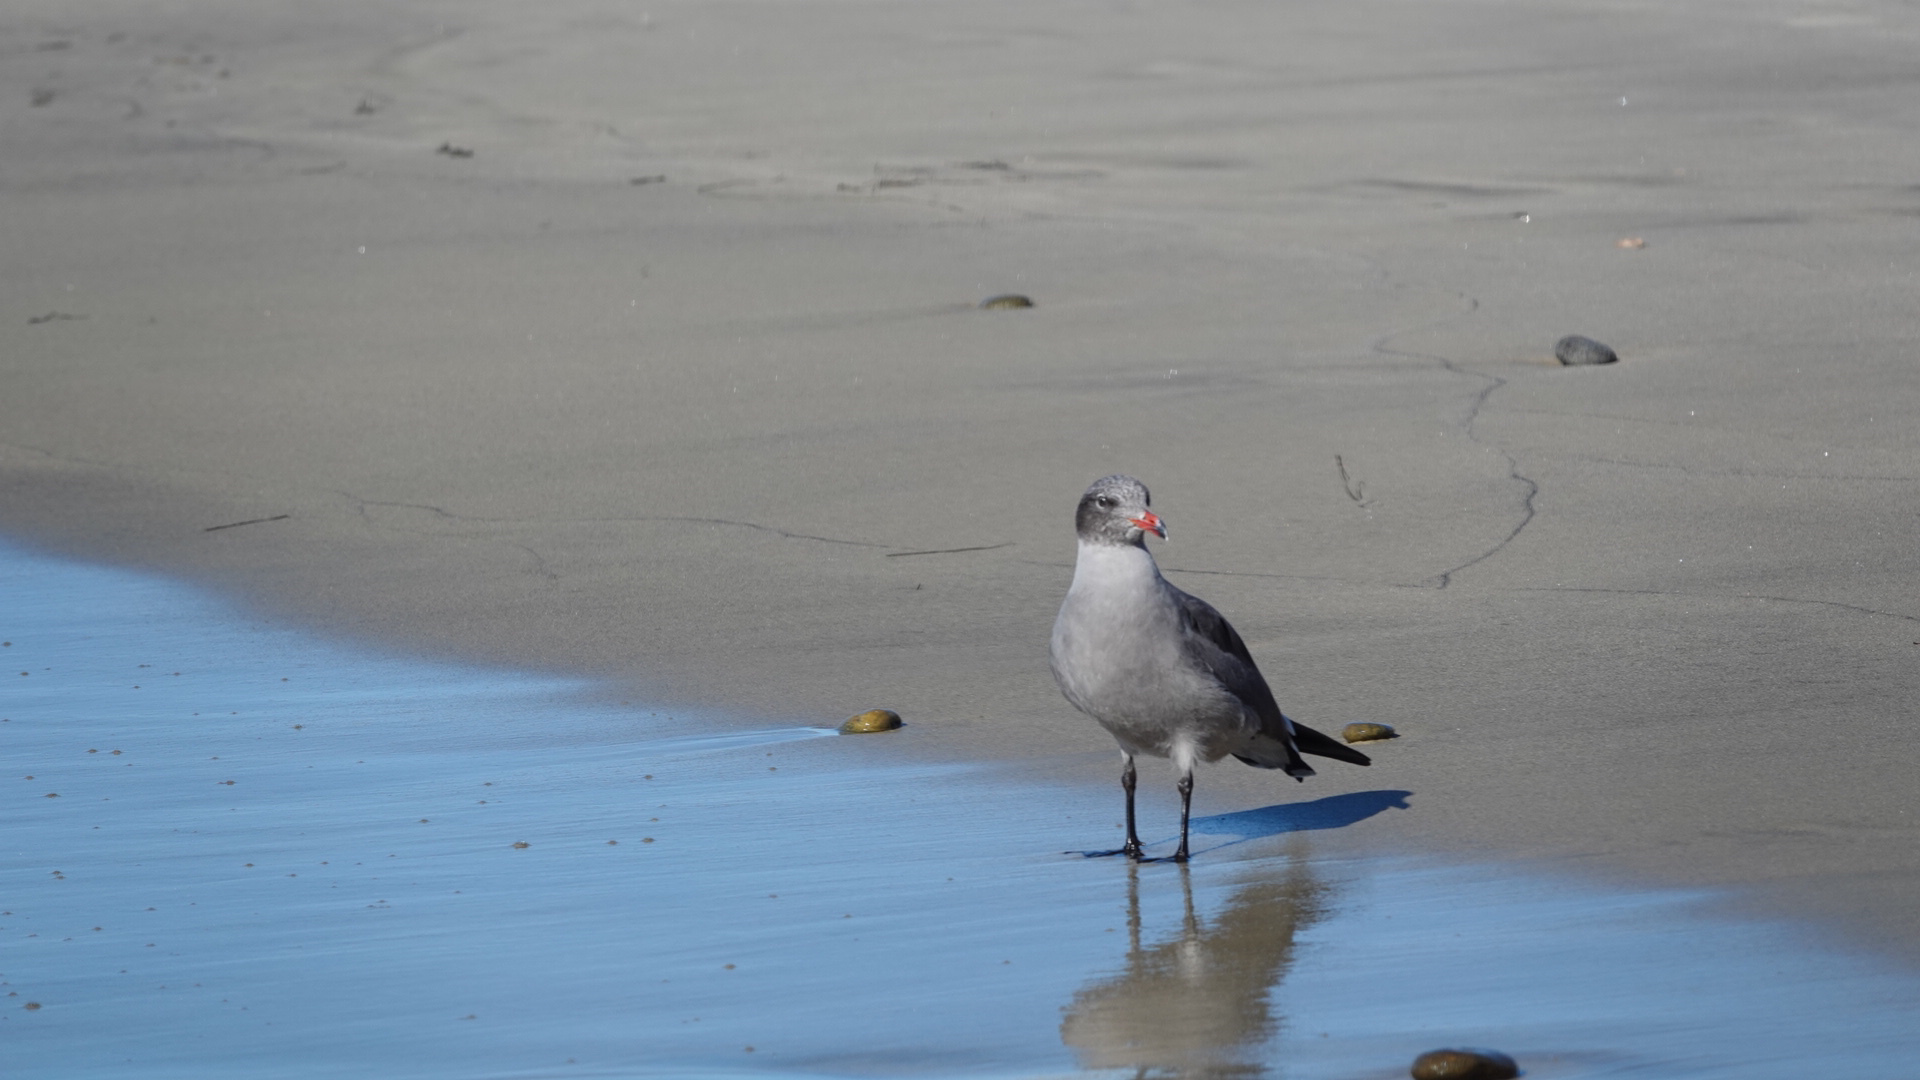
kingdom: Animalia
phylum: Chordata
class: Aves
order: Charadriiformes
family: Laridae
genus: Larus
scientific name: Larus heermanni
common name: Heermann's gull
